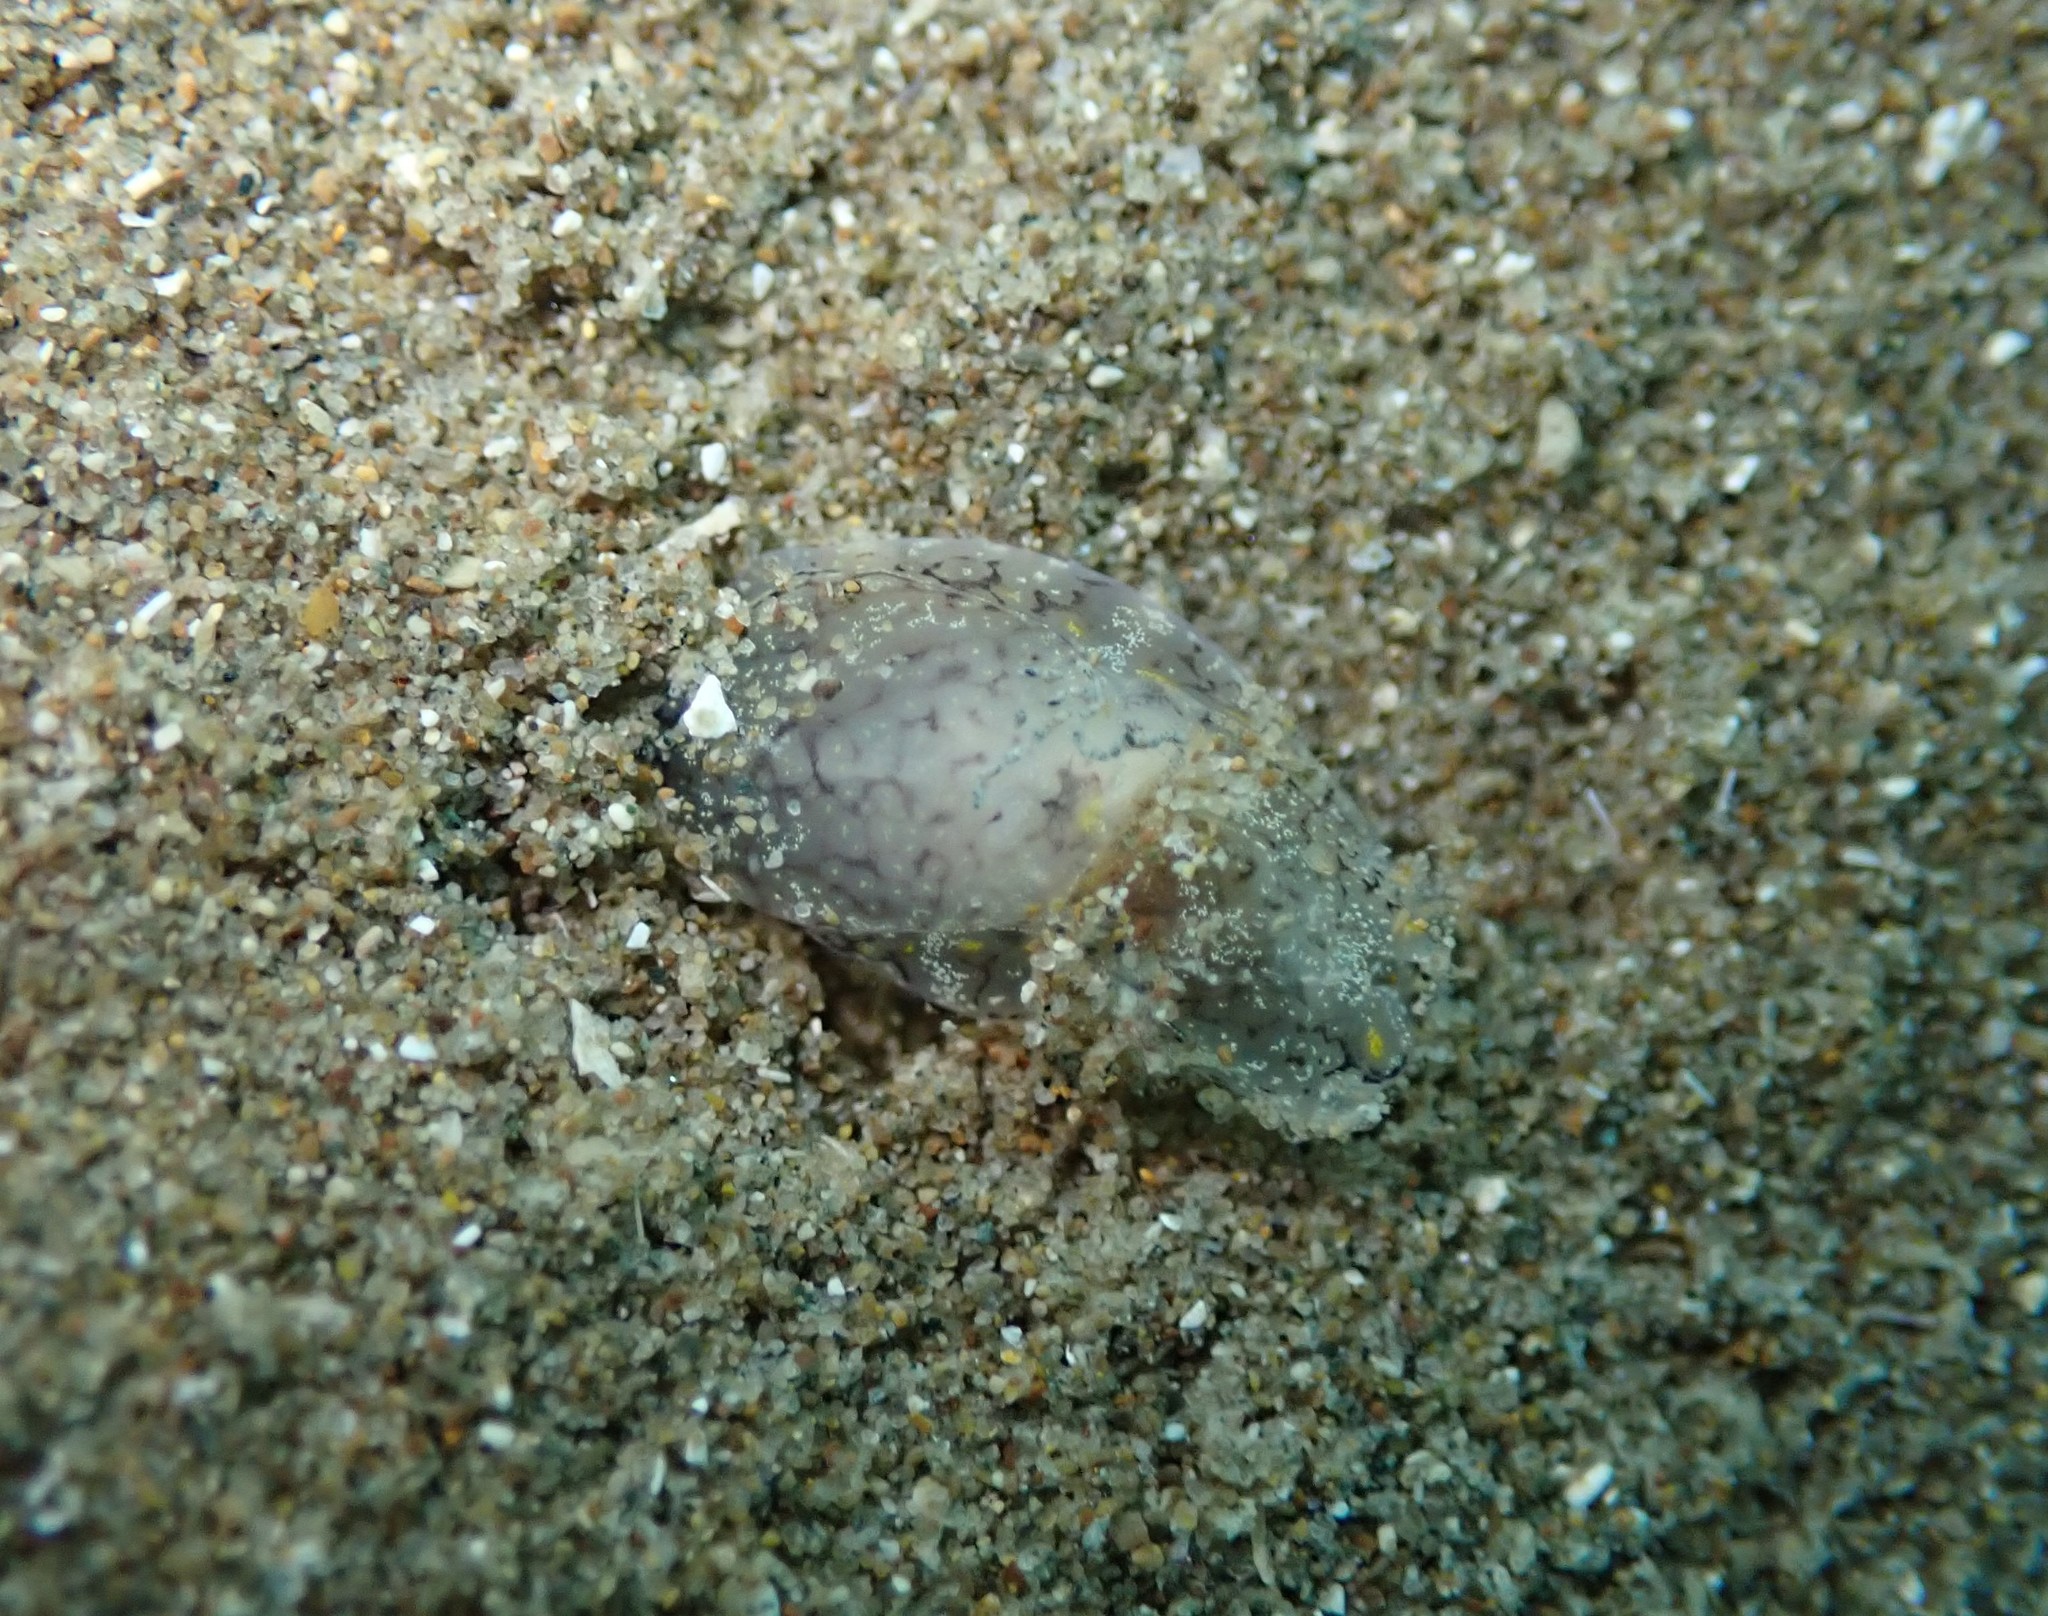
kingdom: Animalia
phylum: Mollusca
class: Gastropoda
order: Cephalaspidea
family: Aglajidae
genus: Philinopsis
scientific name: Philinopsis taronga
